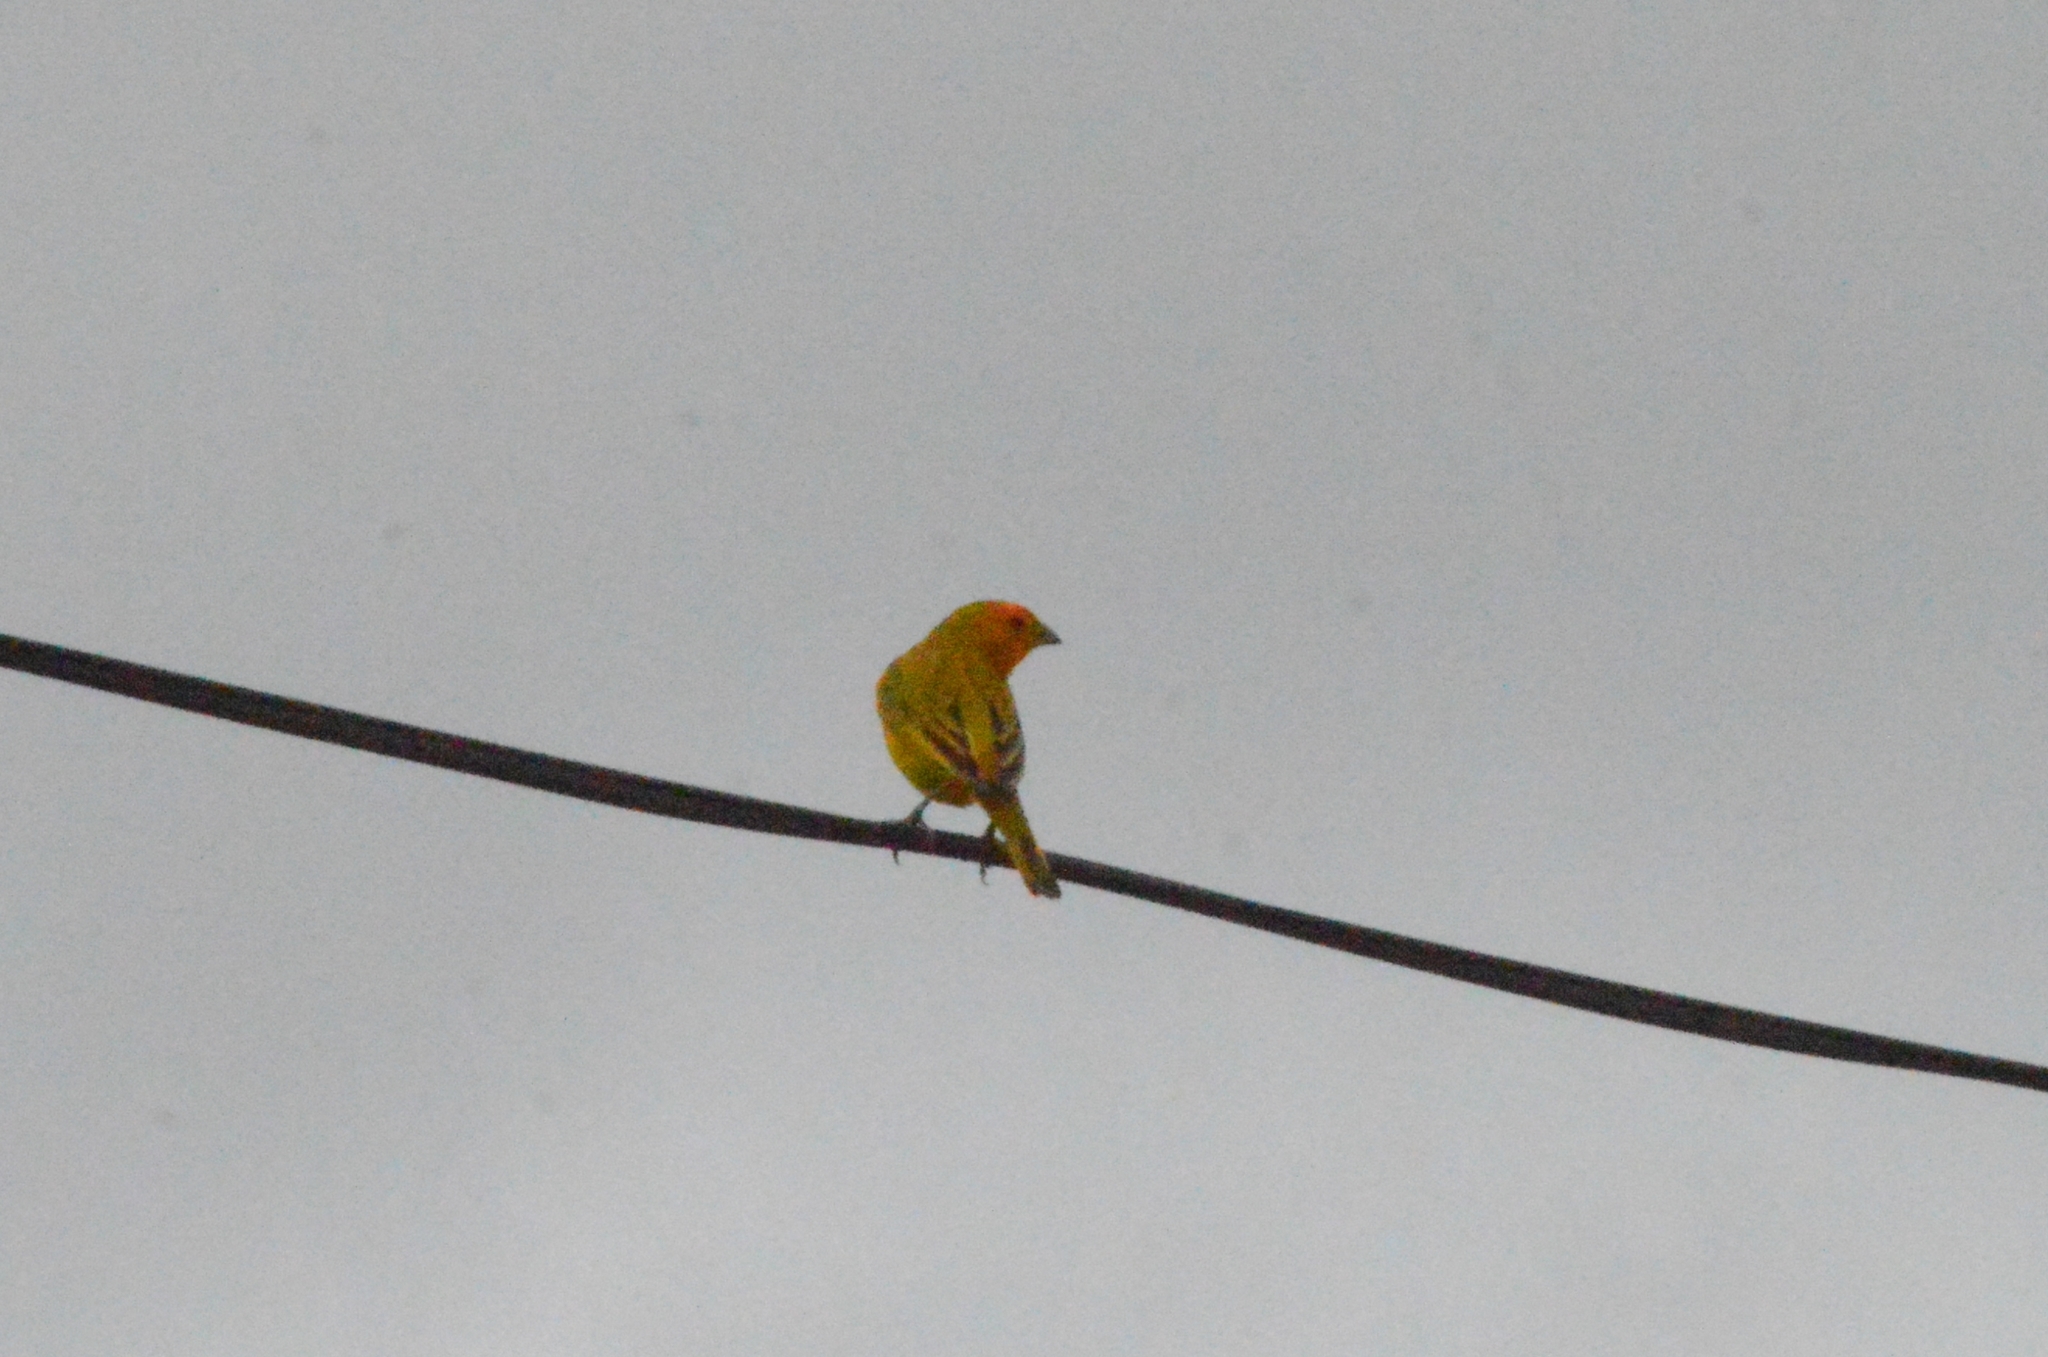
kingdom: Animalia
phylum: Chordata
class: Aves
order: Passeriformes
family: Thraupidae
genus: Sicalis
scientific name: Sicalis flaveola
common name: Saffron finch
